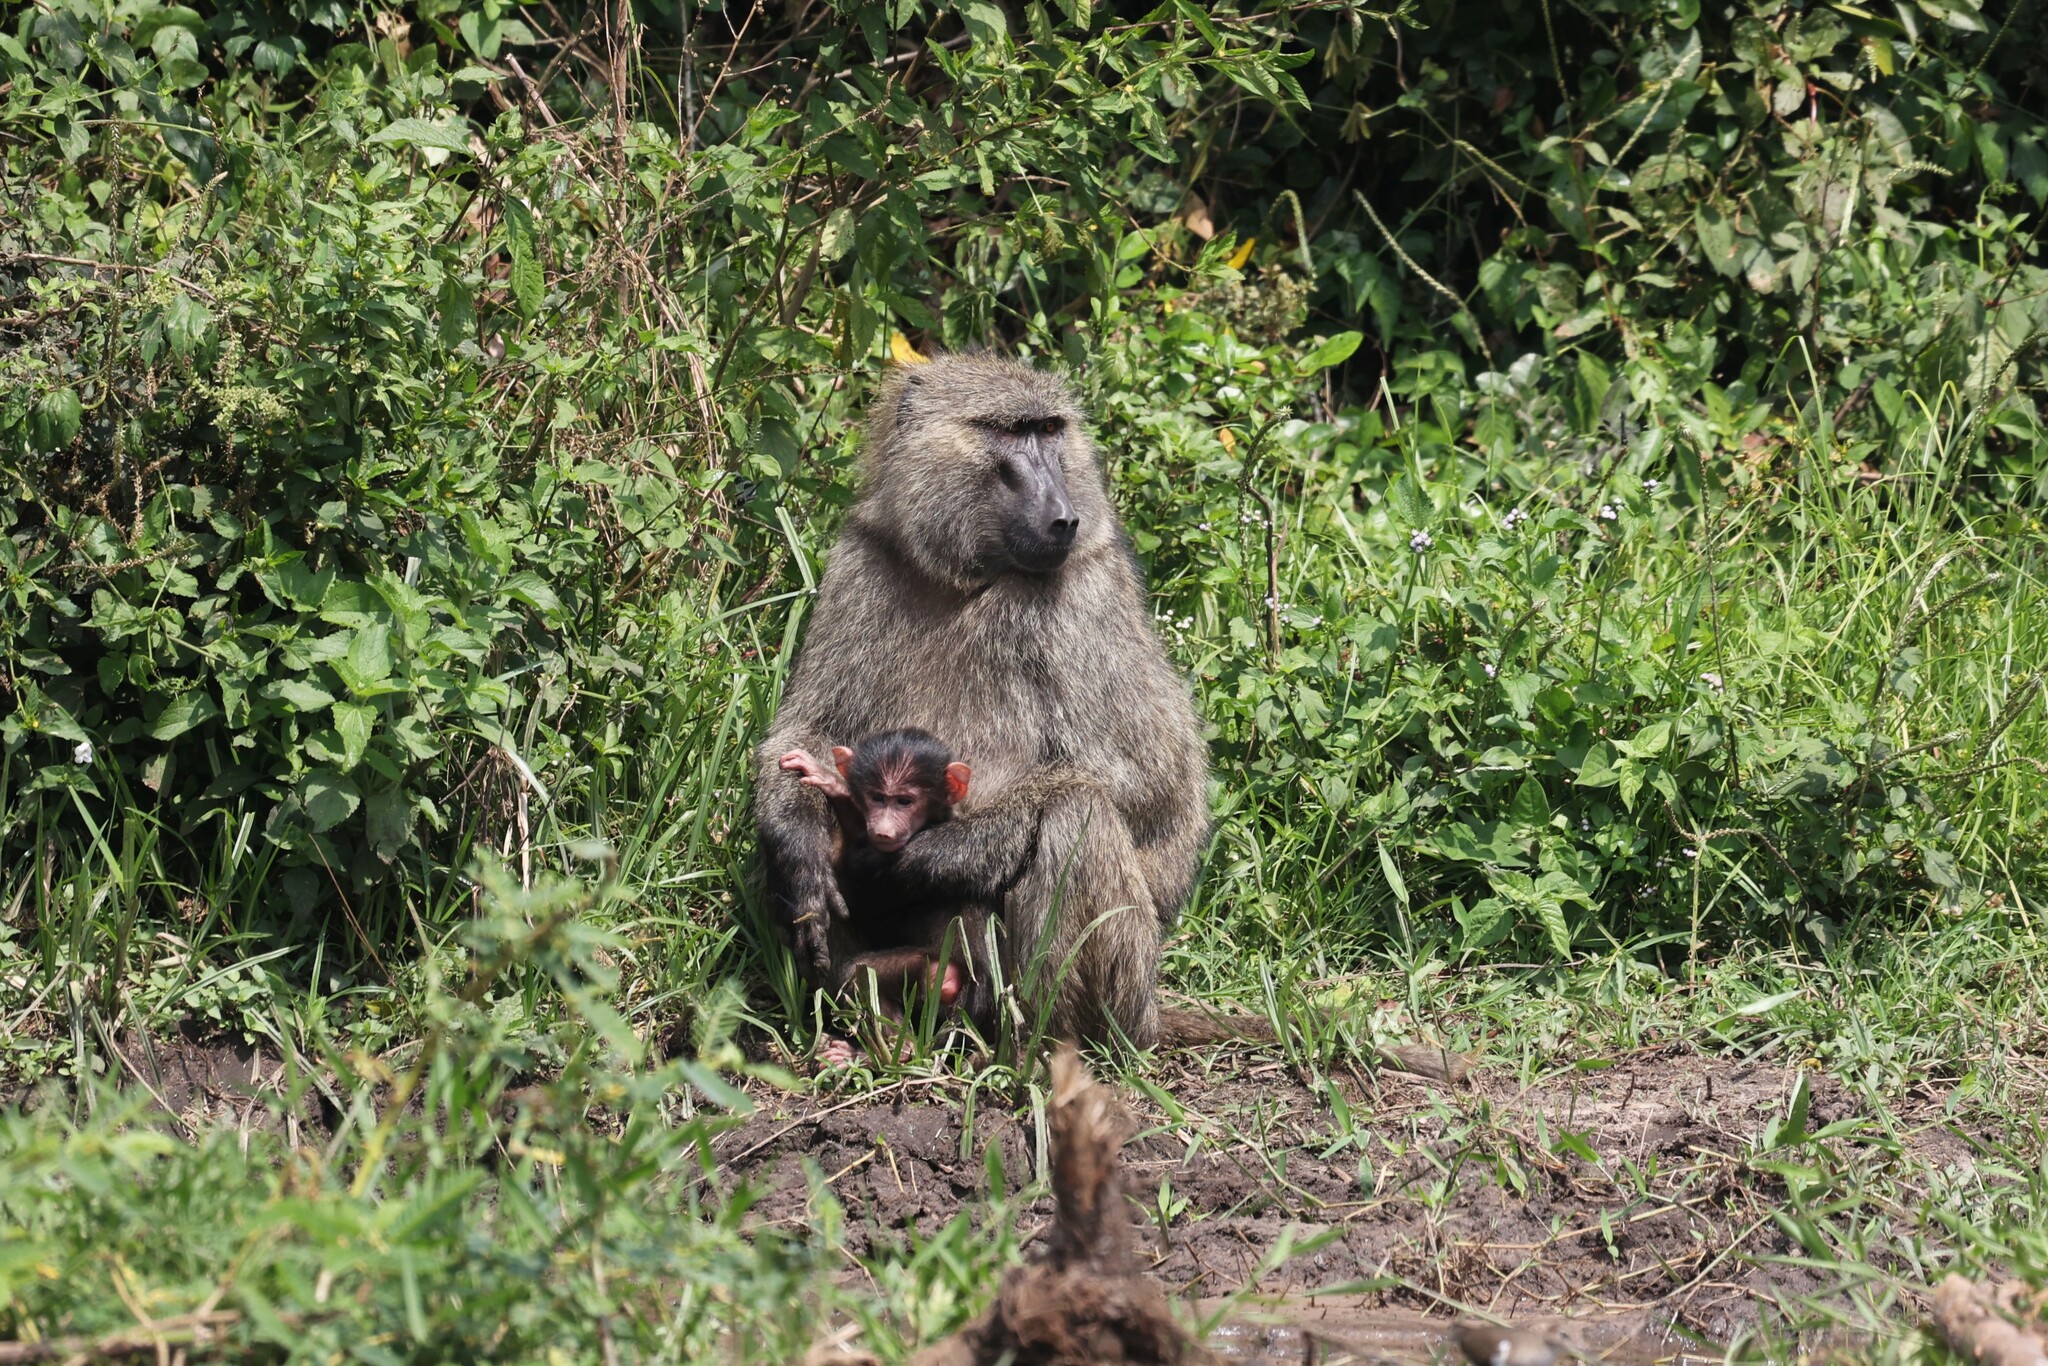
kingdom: Animalia
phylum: Chordata
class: Mammalia
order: Primates
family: Cercopithecidae
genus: Papio
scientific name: Papio anubis
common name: Olive baboon
